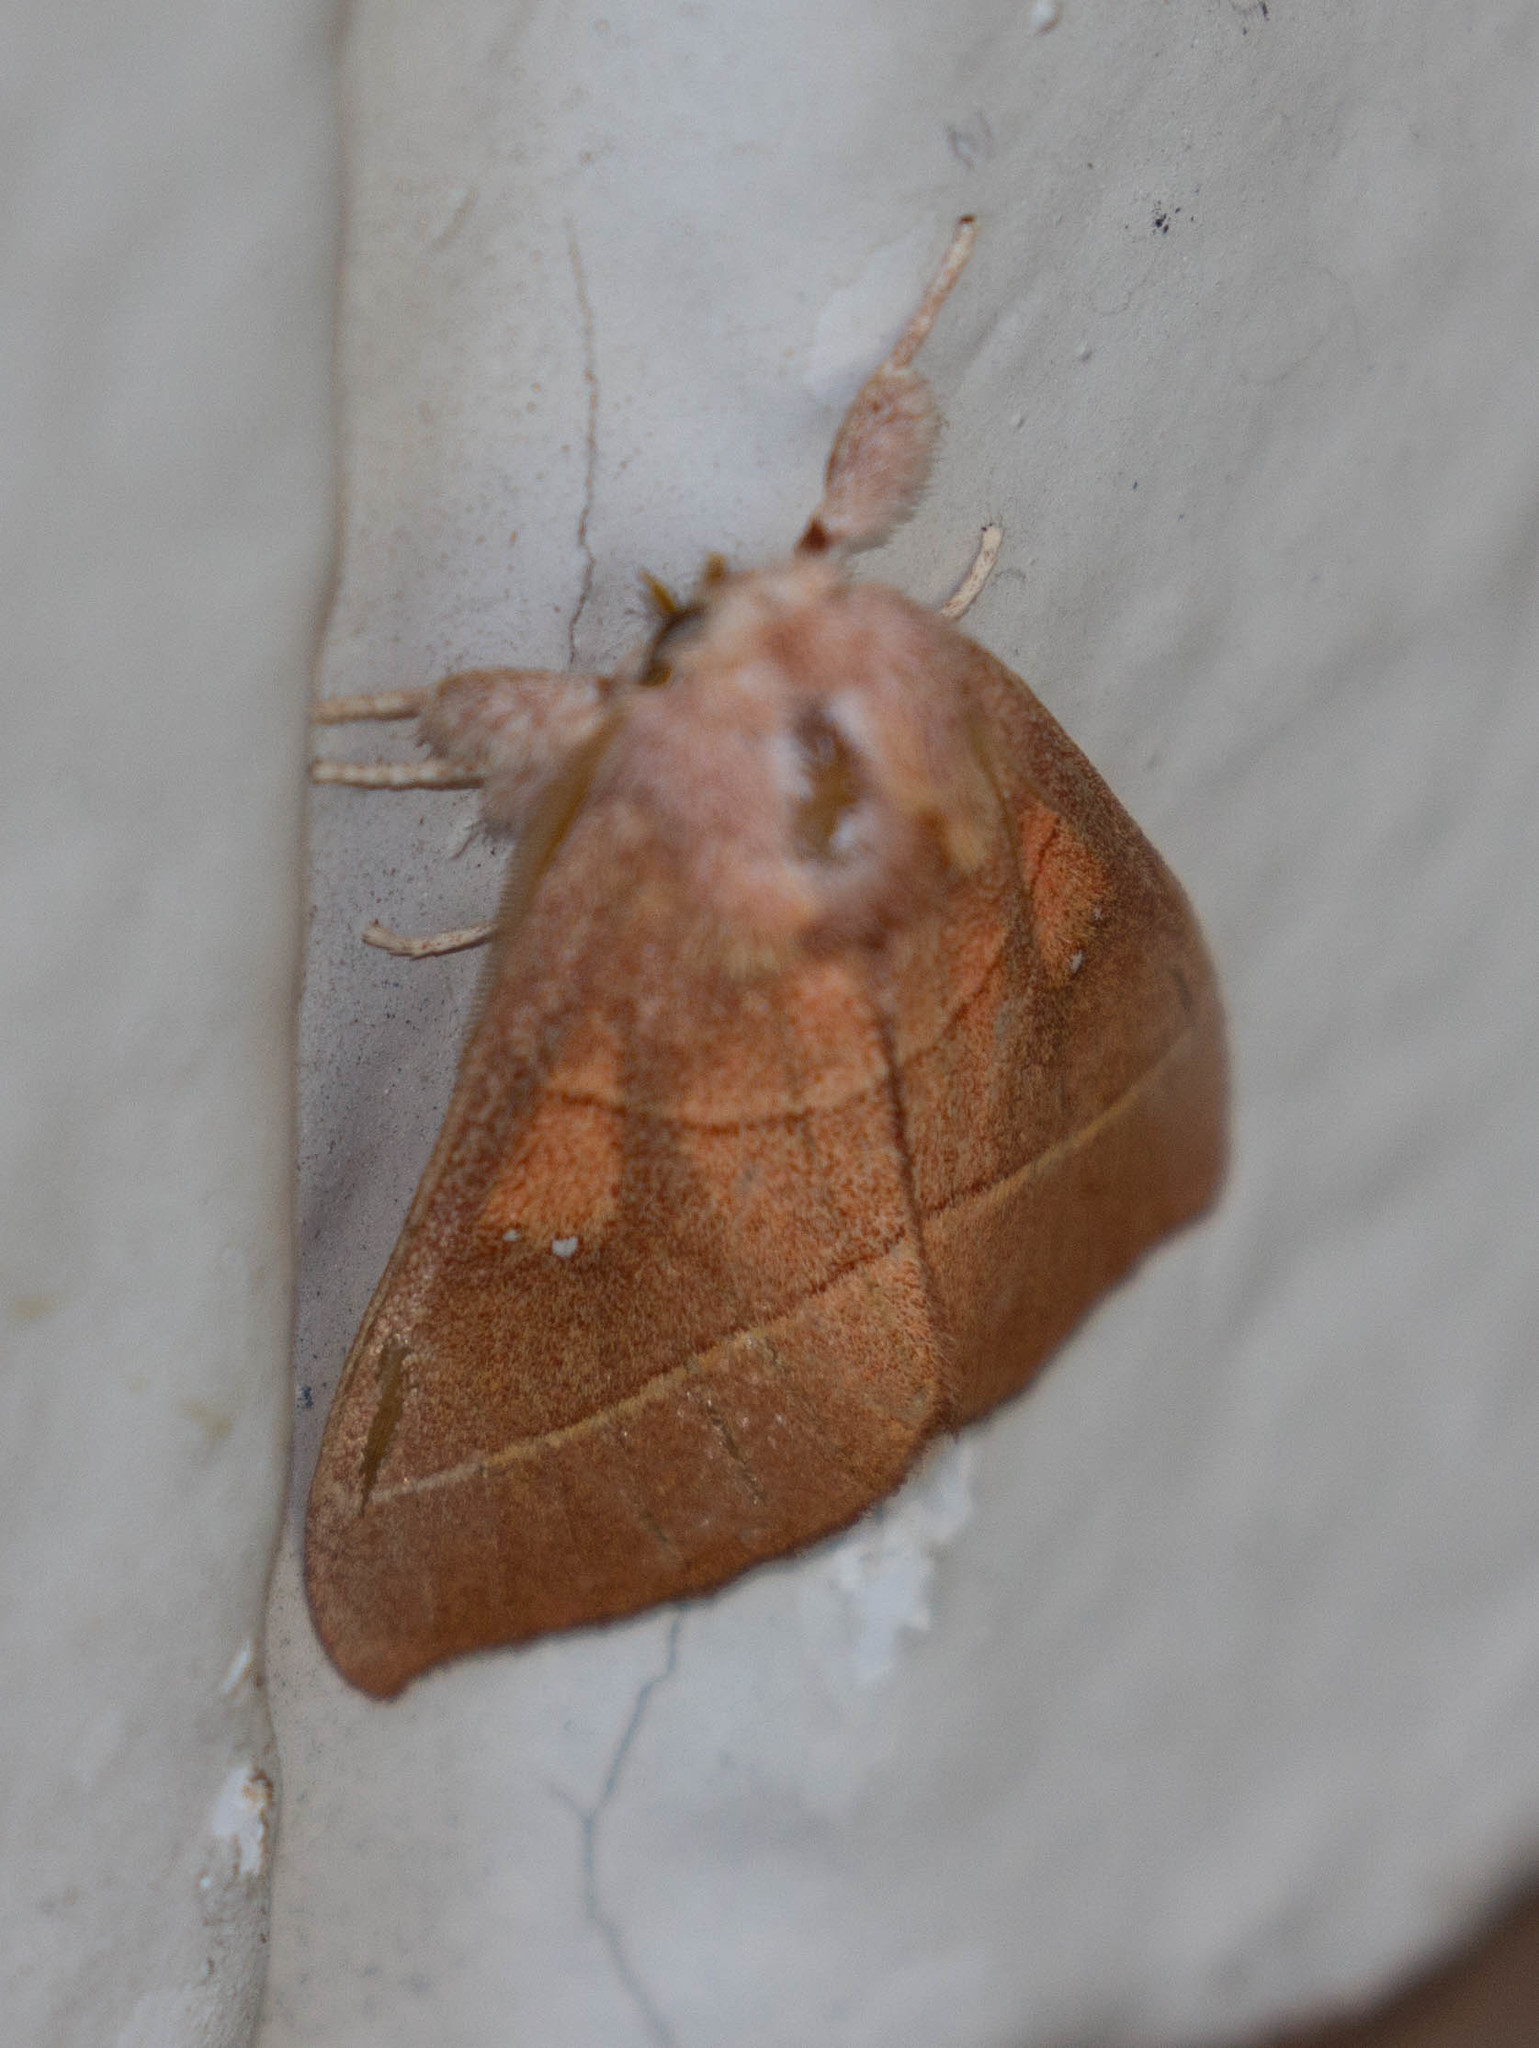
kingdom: Animalia
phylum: Arthropoda
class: Insecta
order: Lepidoptera
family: Notodontidae
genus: Nadata
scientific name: Nadata gibbosa
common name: White-dotted prominent
